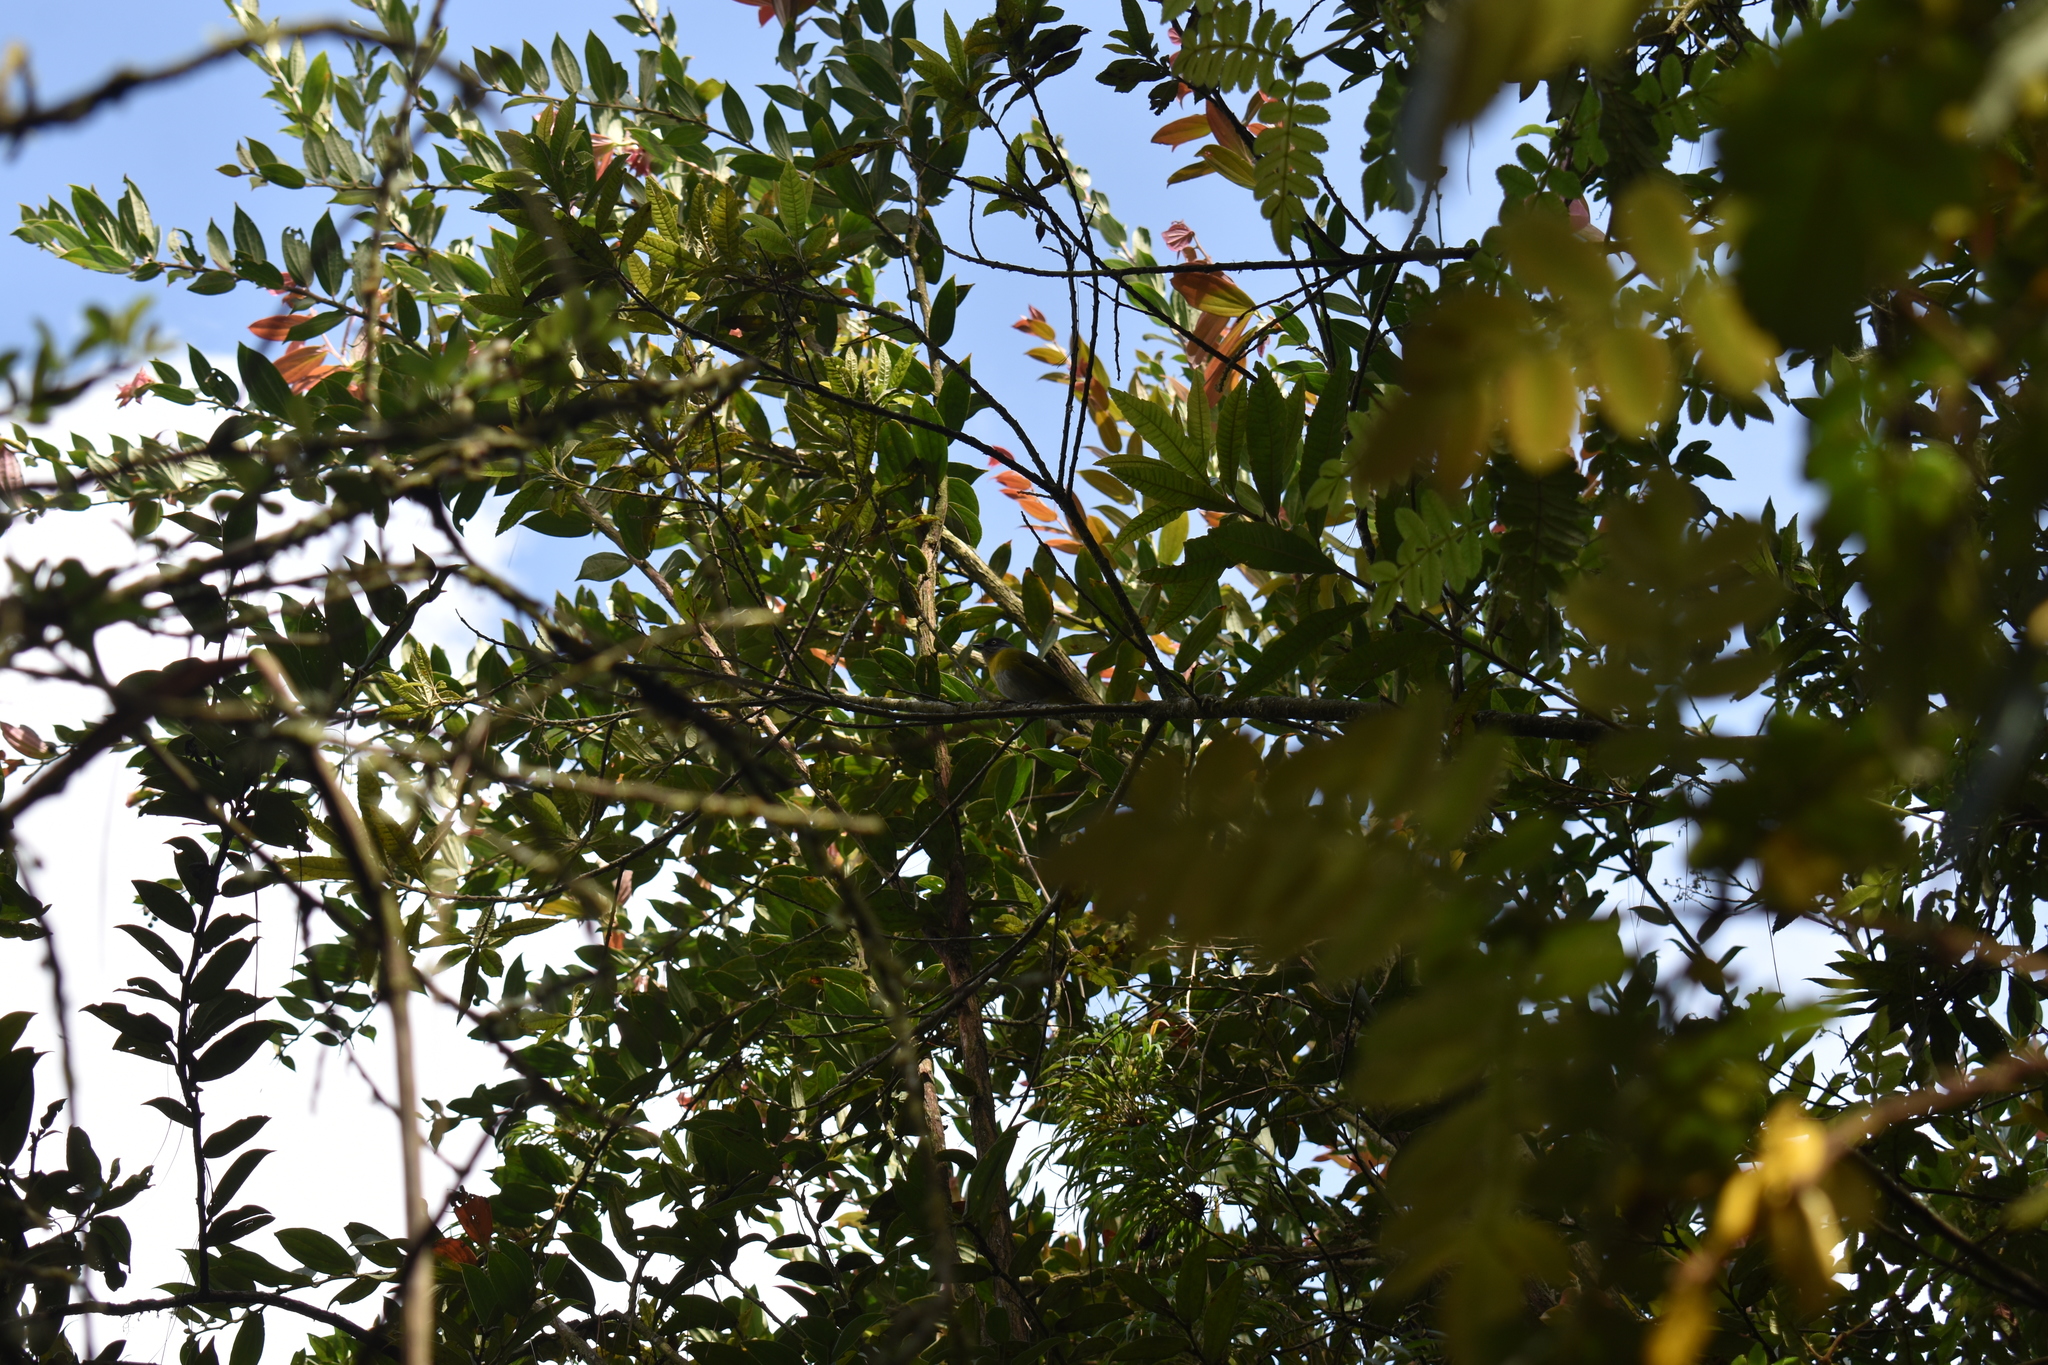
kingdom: Animalia
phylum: Chordata
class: Aves
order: Passeriformes
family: Passerellidae
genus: Chlorospingus
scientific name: Chlorospingus flavopectus
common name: Common chlorospingus
